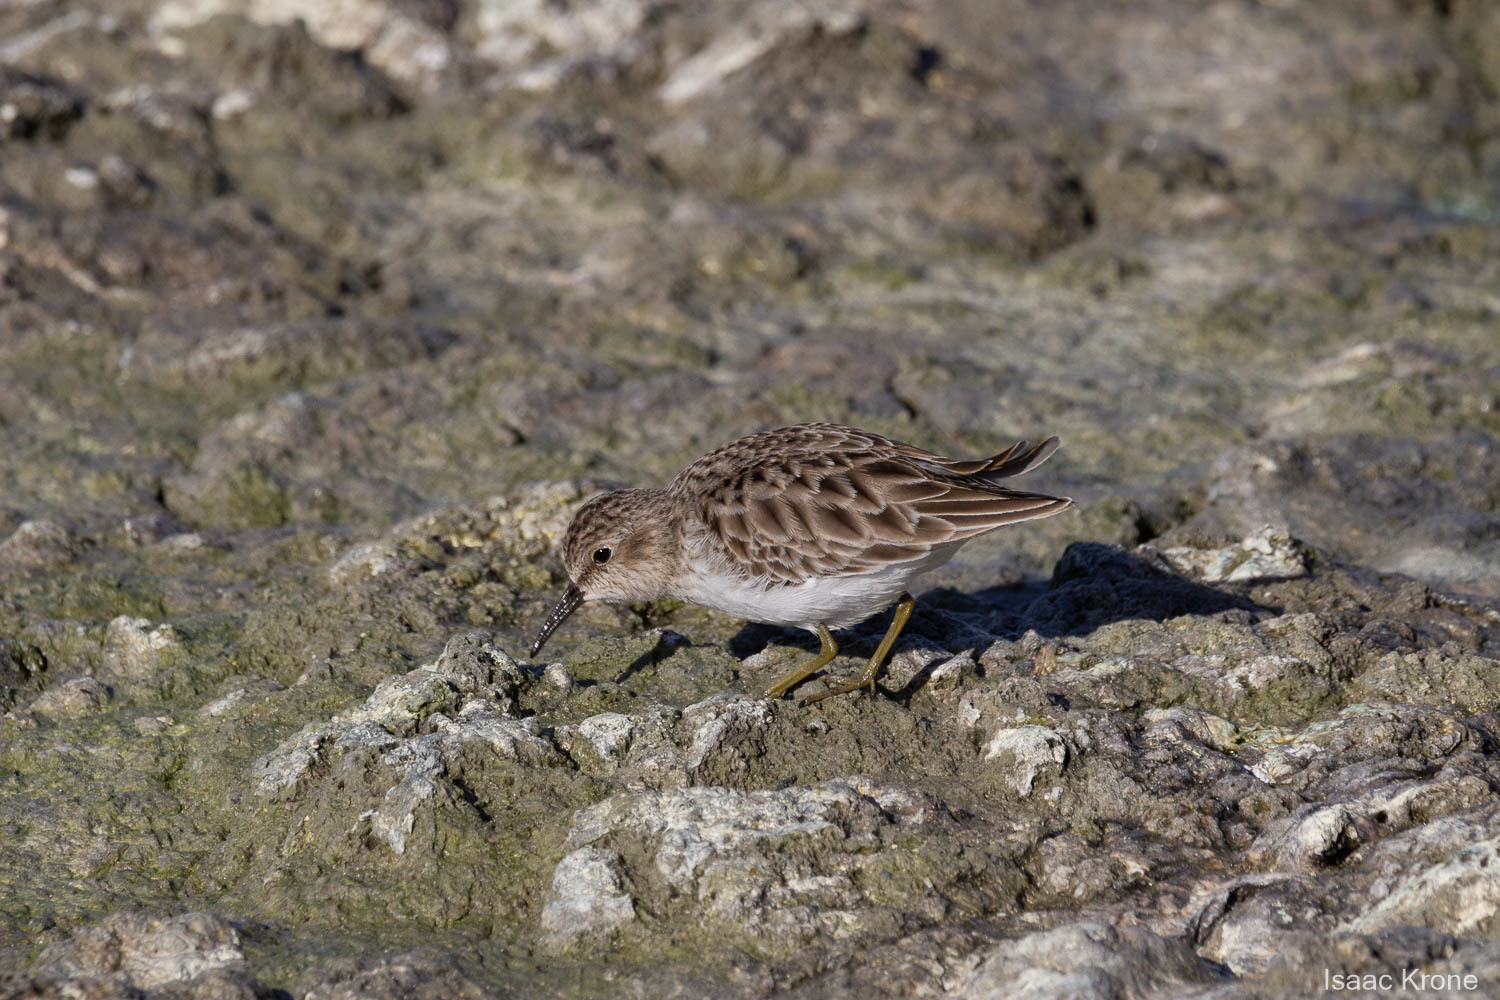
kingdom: Animalia
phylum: Chordata
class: Aves
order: Charadriiformes
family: Scolopacidae
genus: Calidris
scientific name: Calidris minutilla
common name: Least sandpiper
